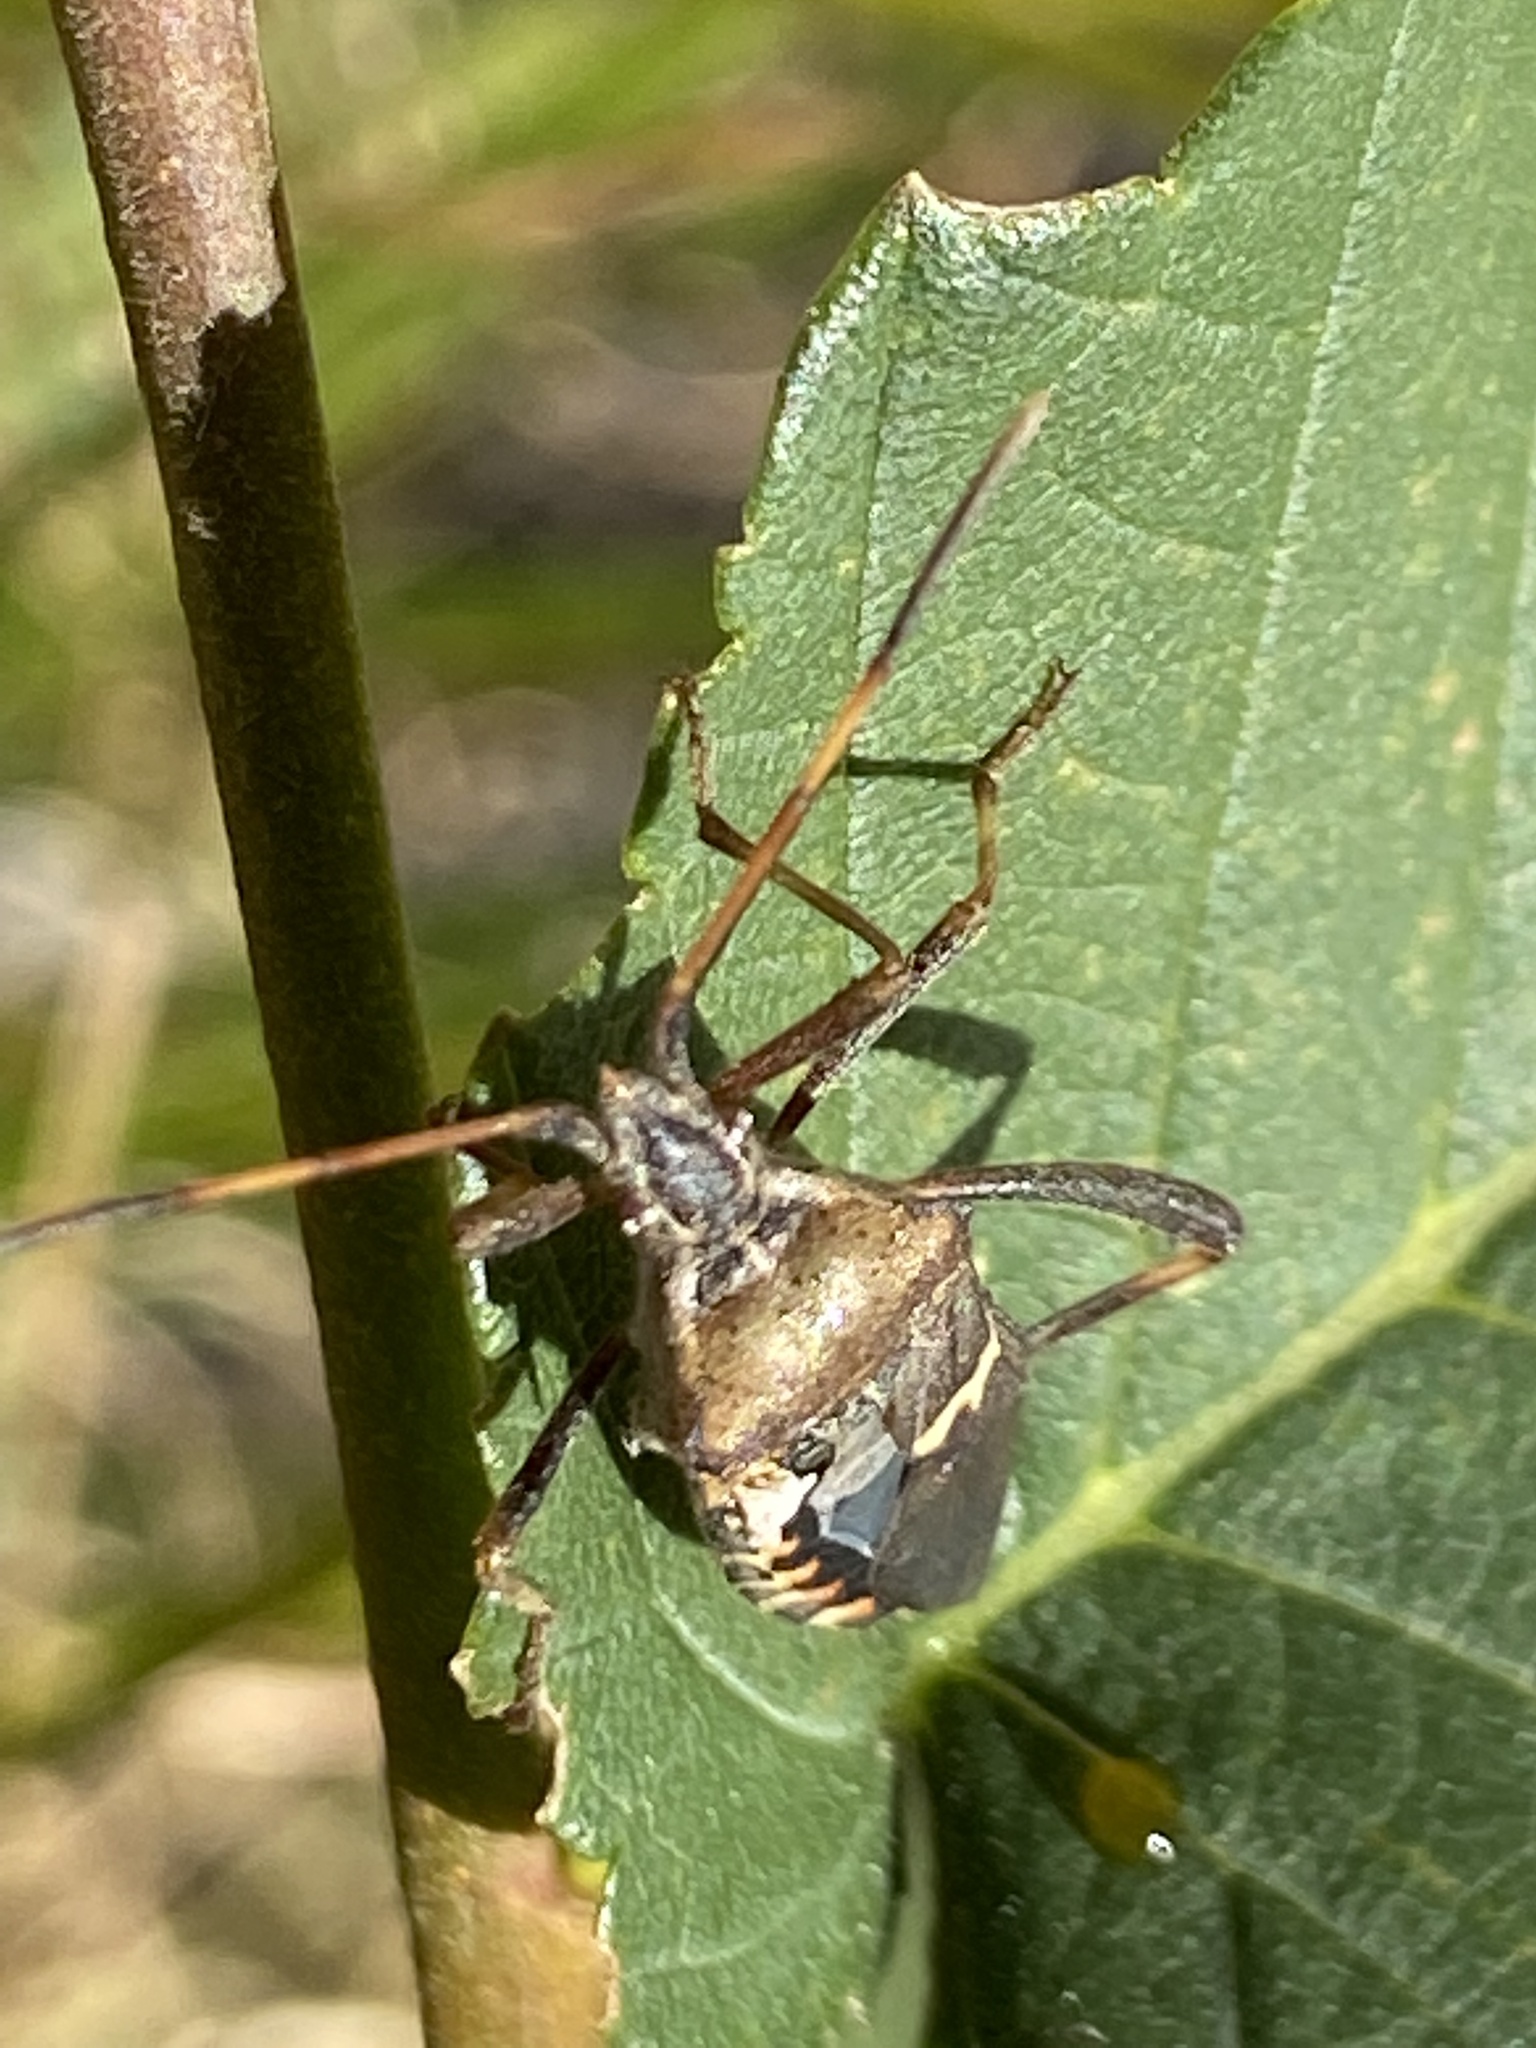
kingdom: Animalia
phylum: Arthropoda
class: Insecta
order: Hemiptera
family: Coreidae
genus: Leptoglossus
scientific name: Leptoglossus clypealis
